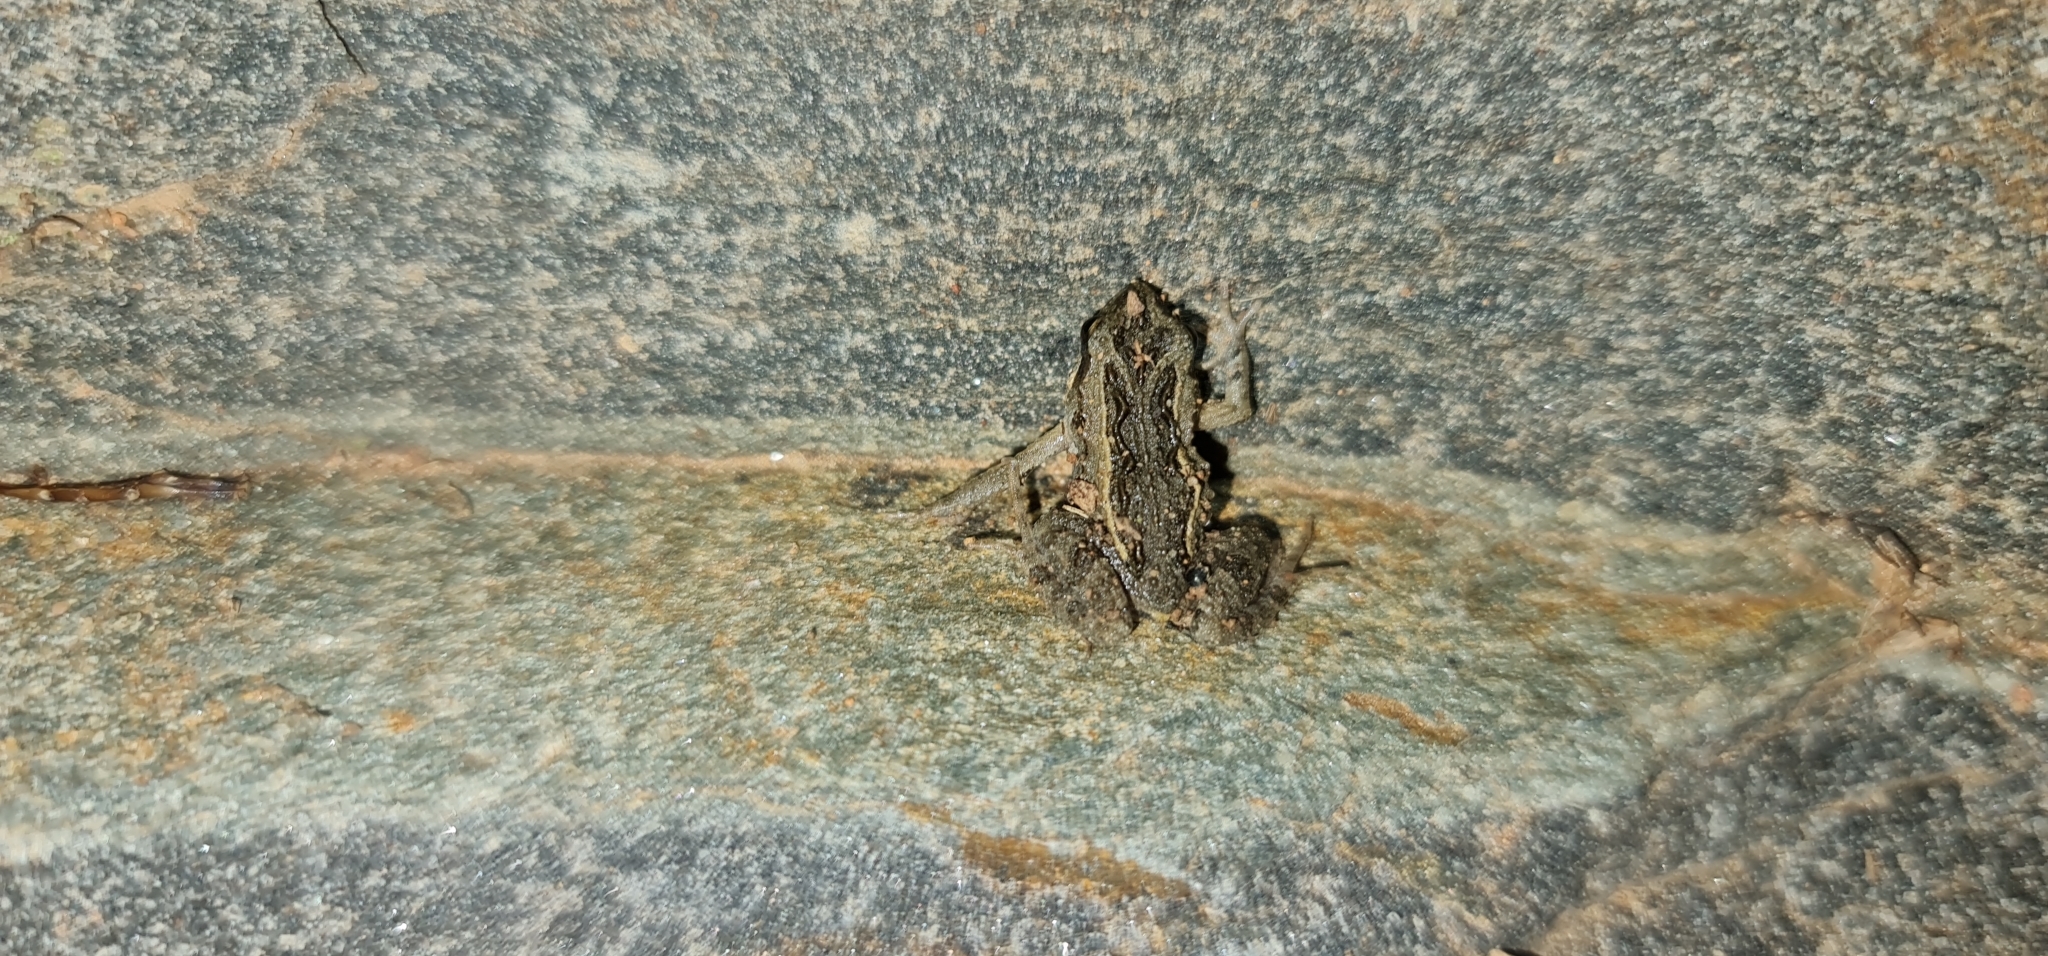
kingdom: Animalia
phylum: Chordata
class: Amphibia
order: Anura
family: Myobatrachidae
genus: Crinia
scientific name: Crinia signifera
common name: Brown froglet
